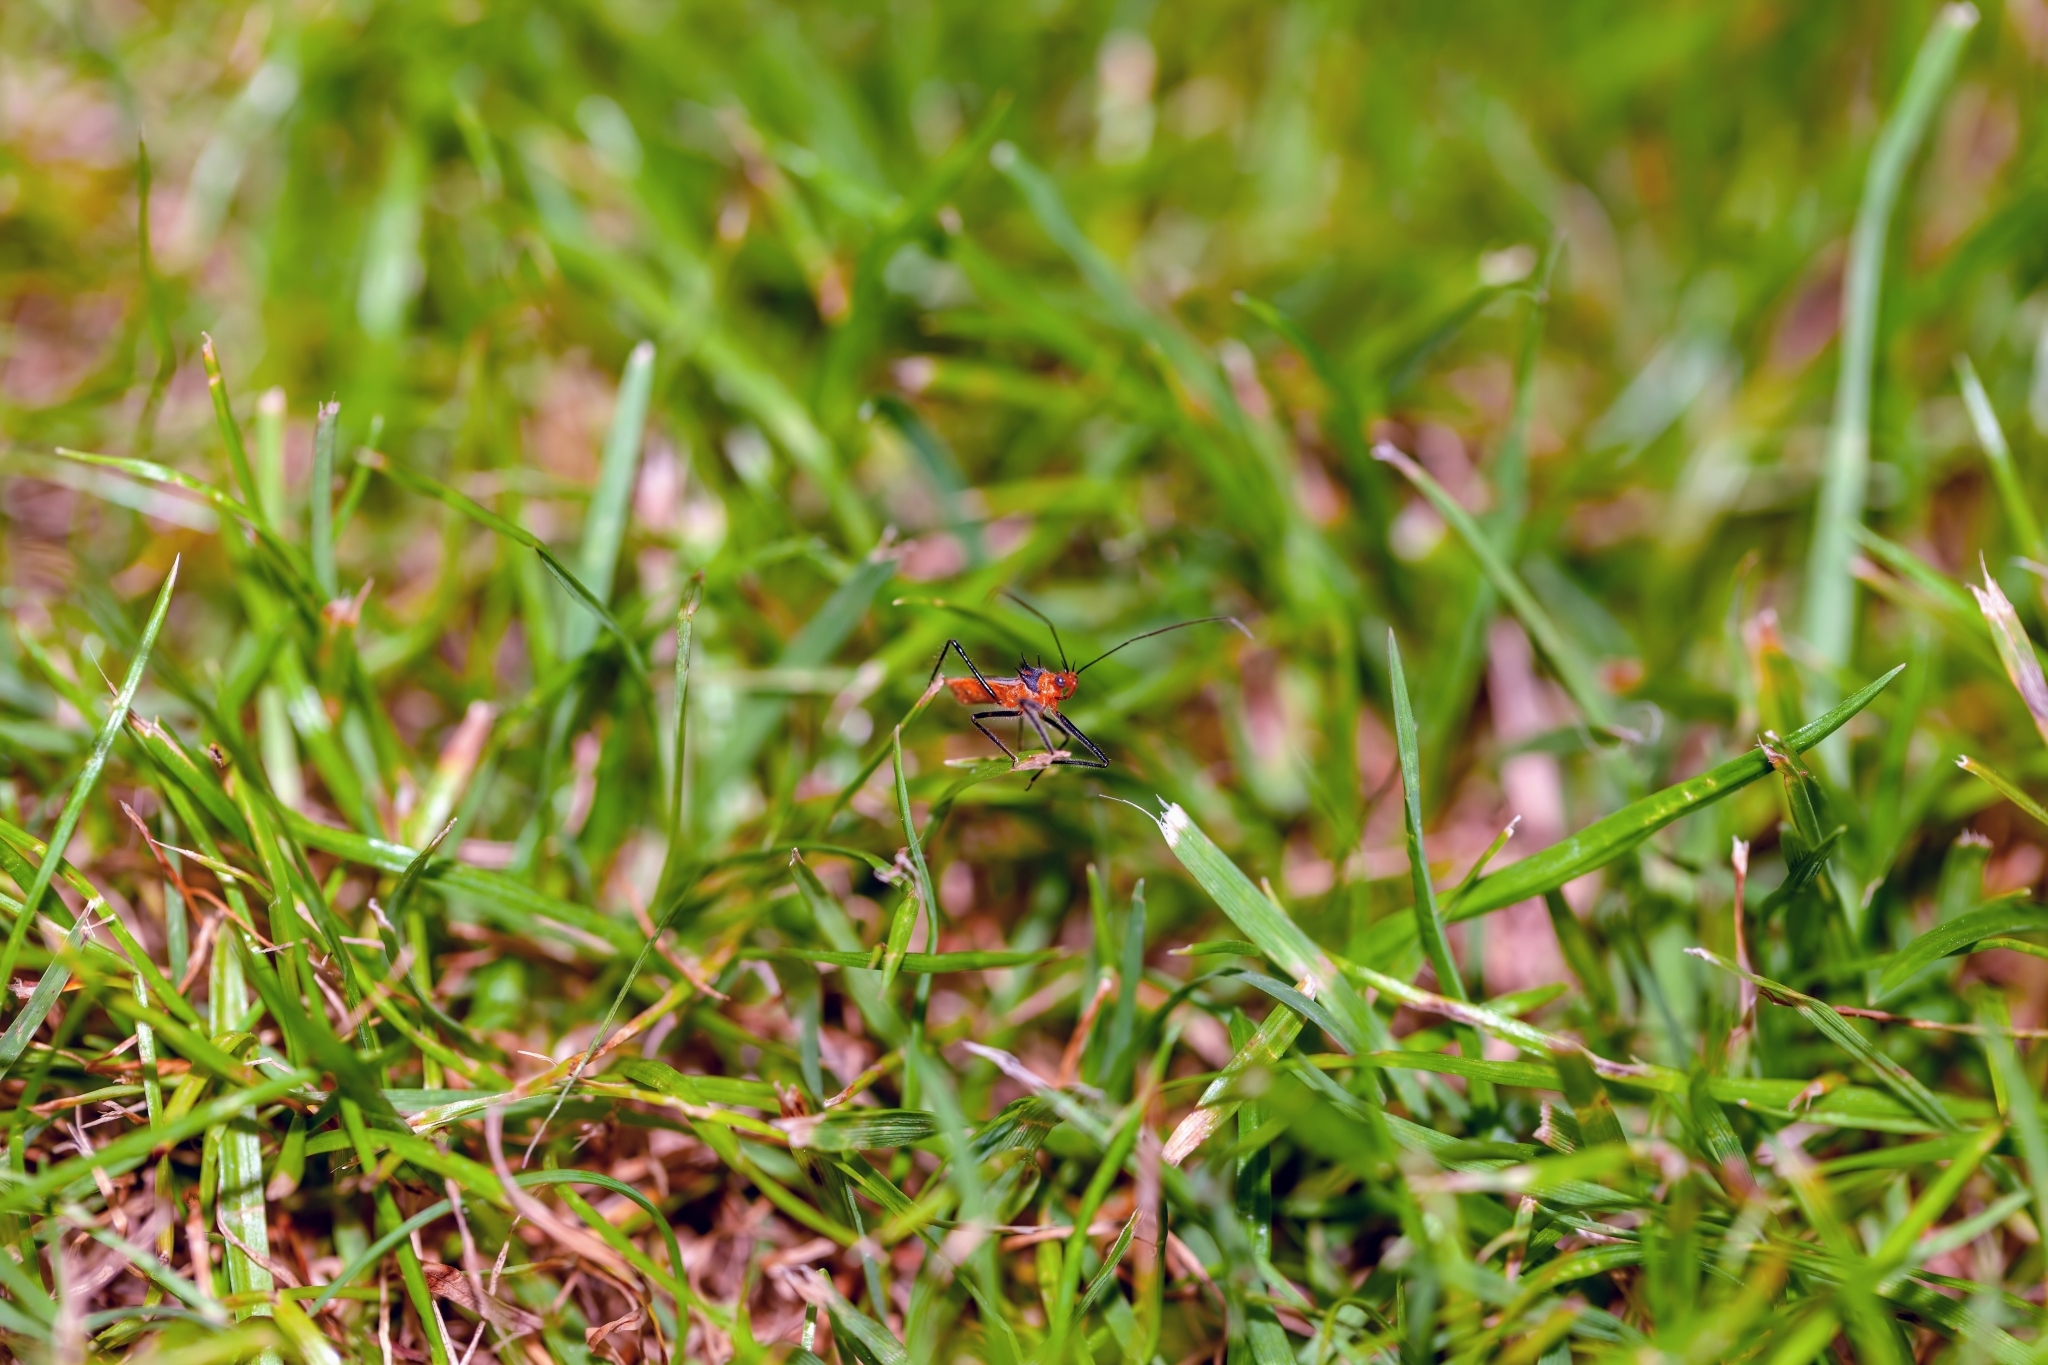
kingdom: Animalia
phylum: Arthropoda
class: Insecta
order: Hemiptera
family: Reduviidae
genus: Repipta
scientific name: Repipta taurus
